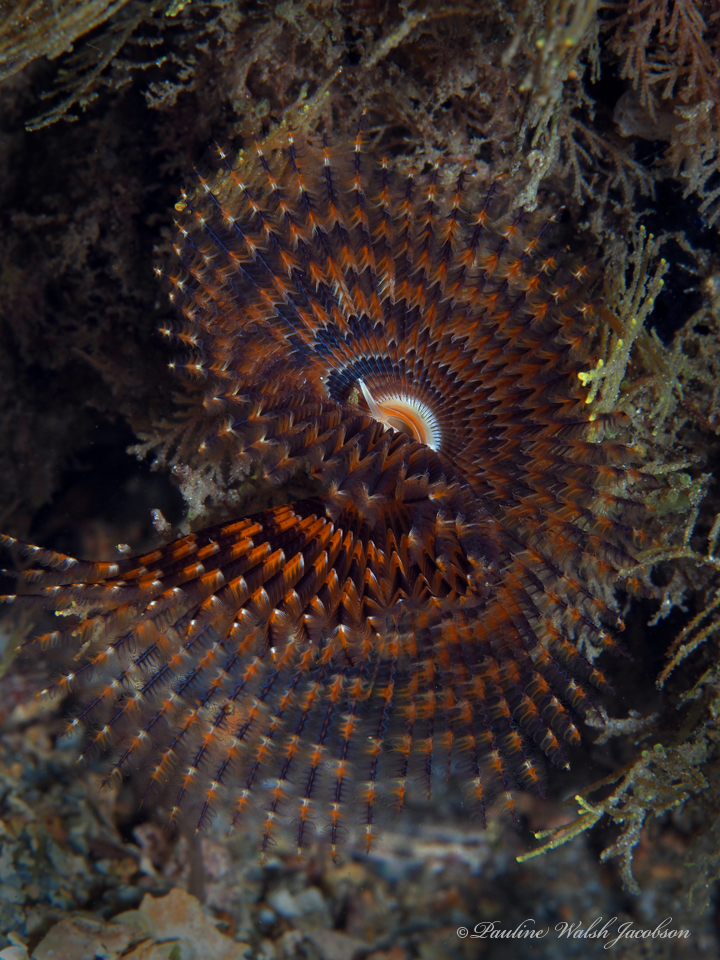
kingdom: Animalia
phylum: Annelida
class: Polychaeta
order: Sabellida
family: Sabellidae
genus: Branchiomma
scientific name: Branchiomma nigromaculatum
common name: Black-spotted feather duster
